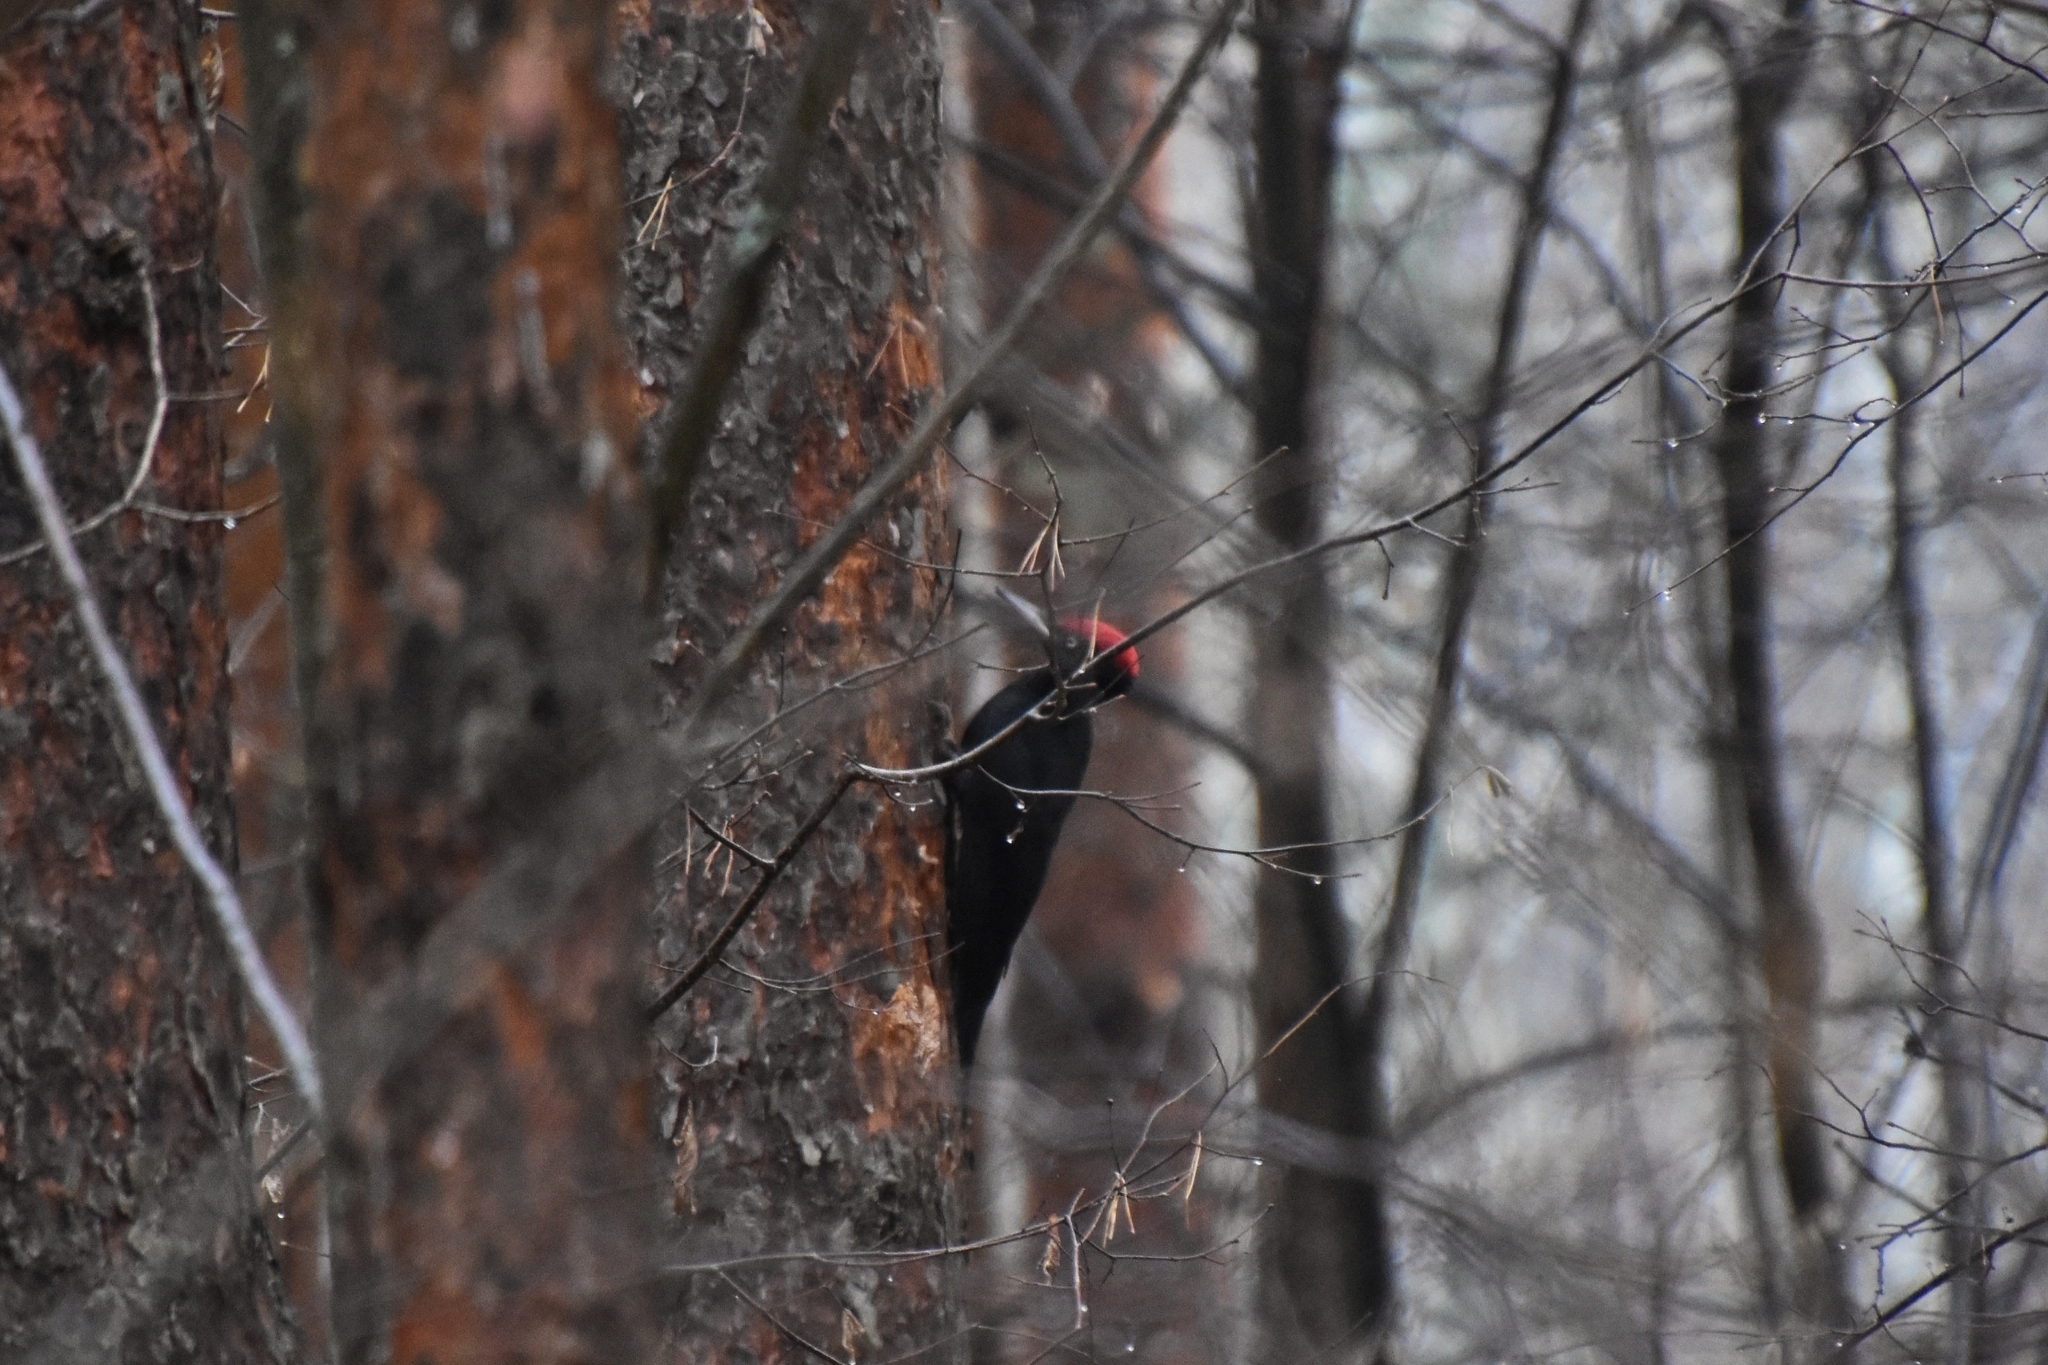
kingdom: Animalia
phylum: Chordata
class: Aves
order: Piciformes
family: Picidae
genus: Dryocopus
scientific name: Dryocopus martius
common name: Black woodpecker
